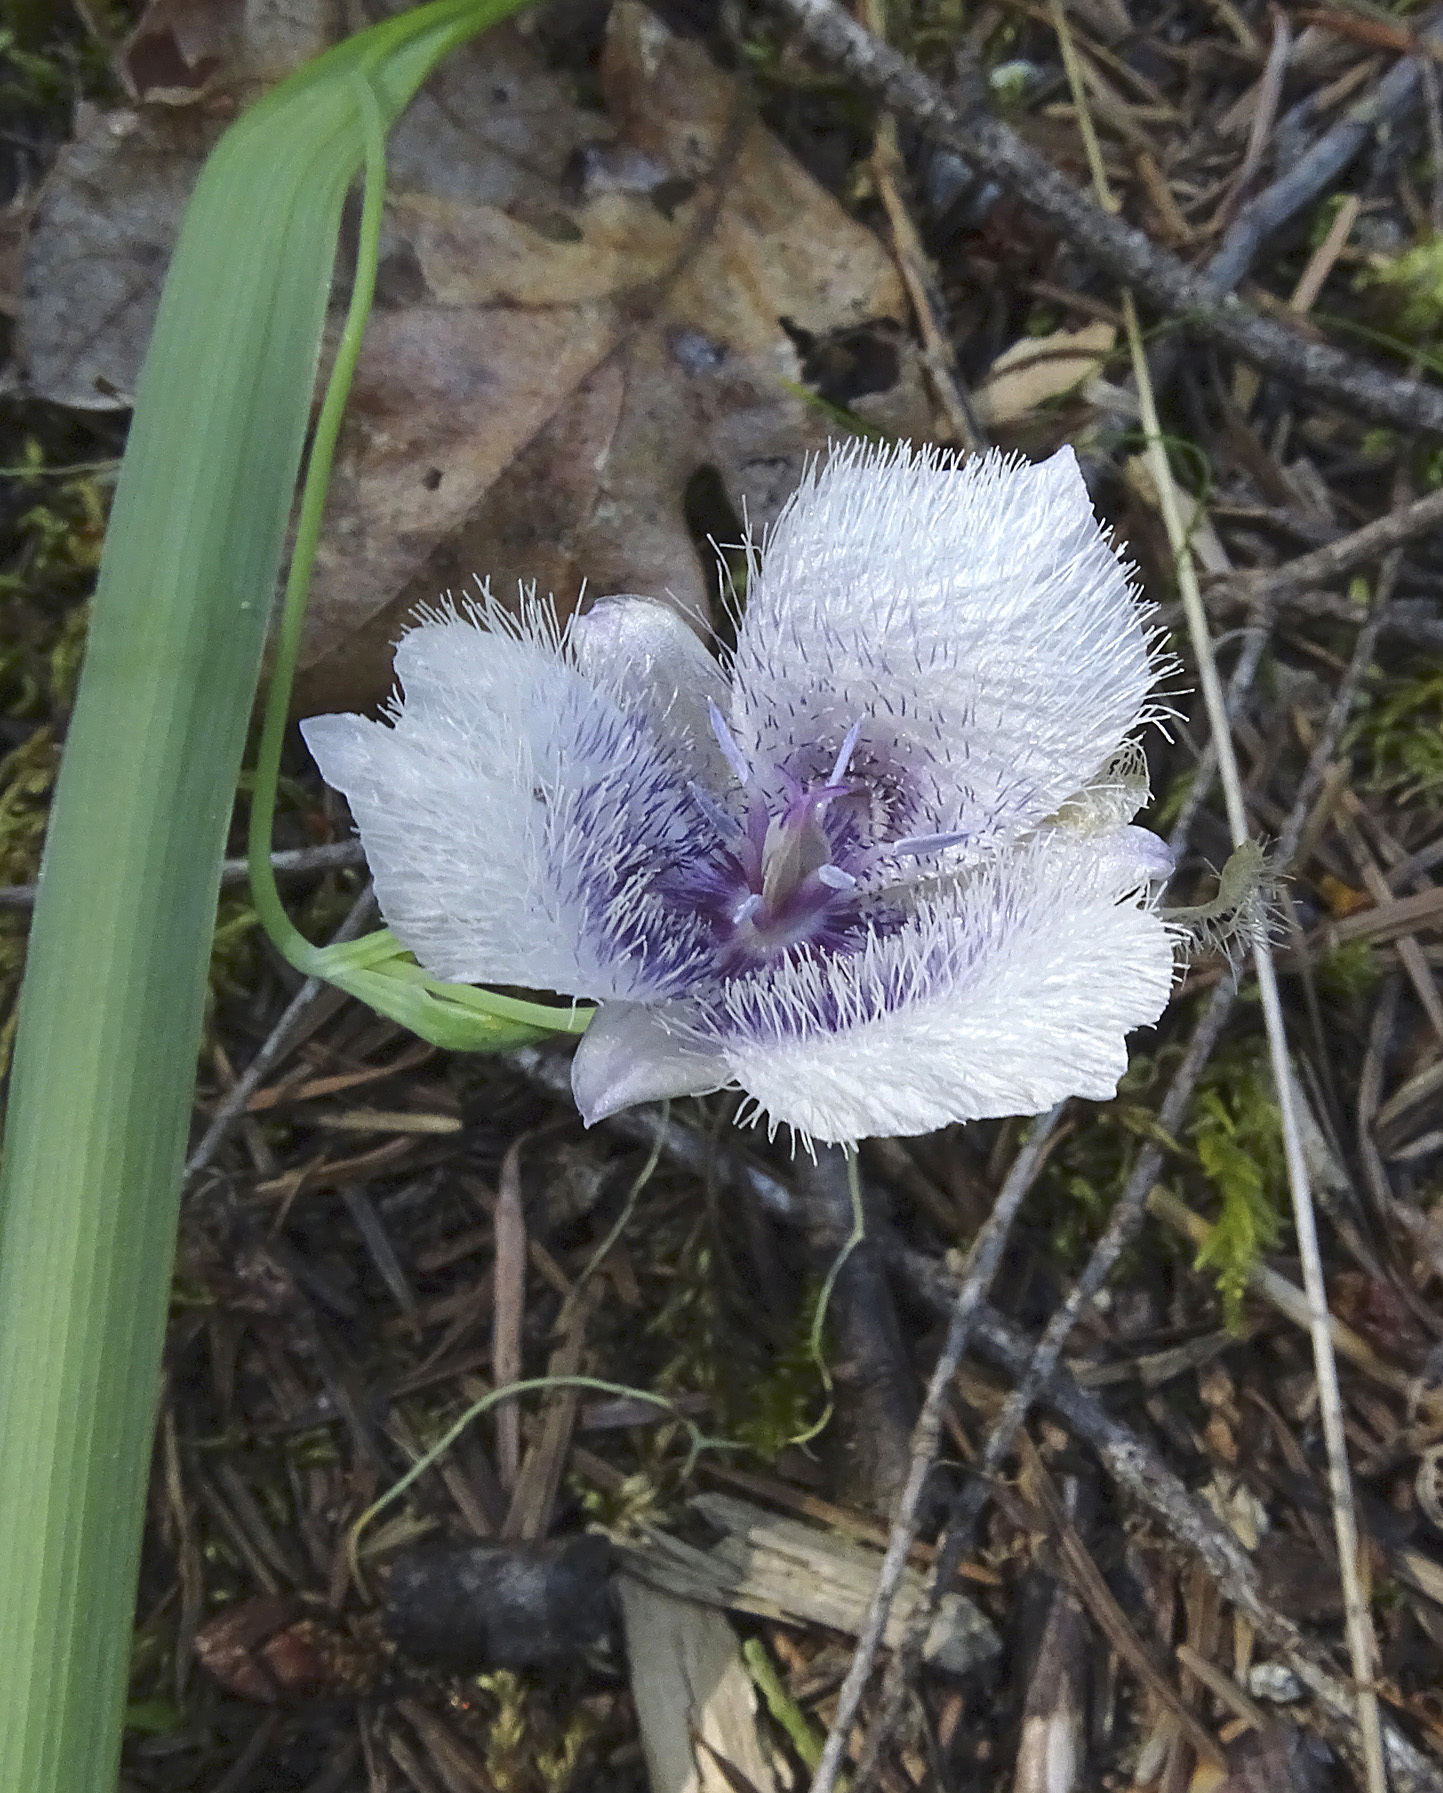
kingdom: Plantae
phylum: Tracheophyta
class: Liliopsida
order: Liliales
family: Liliaceae
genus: Calochortus
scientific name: Calochortus tolmiei
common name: Pussy-ears
